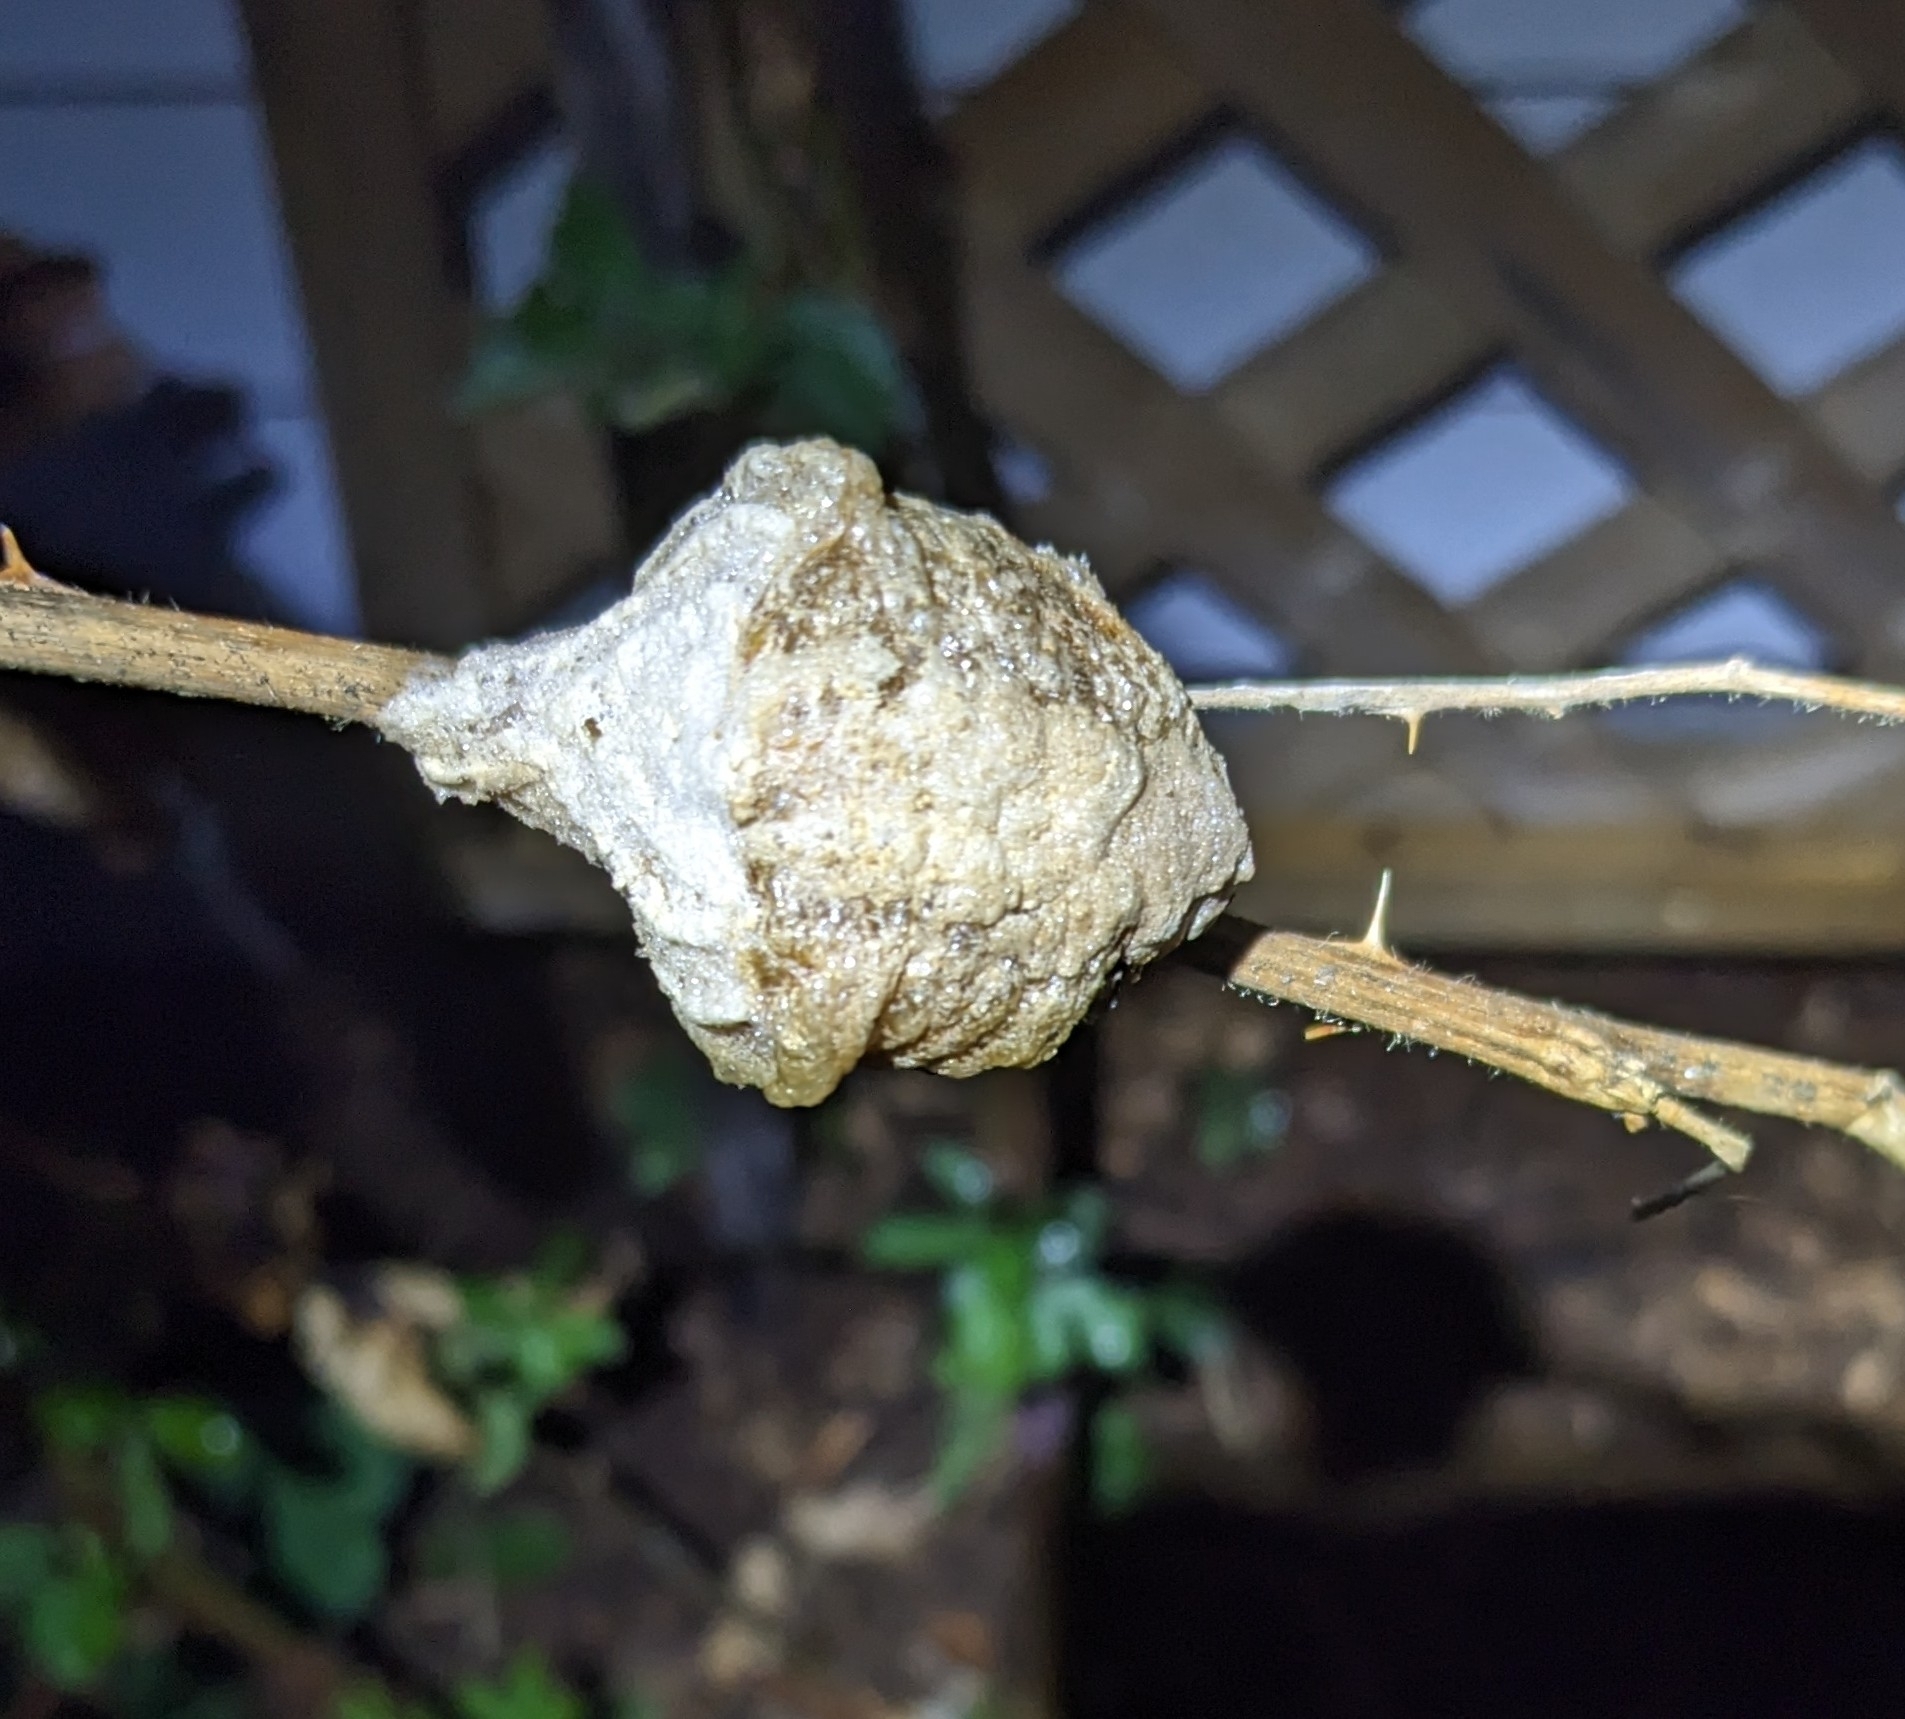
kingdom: Animalia
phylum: Arthropoda
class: Insecta
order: Mantodea
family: Mantidae
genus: Tenodera
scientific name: Tenodera sinensis
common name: Chinese mantis
